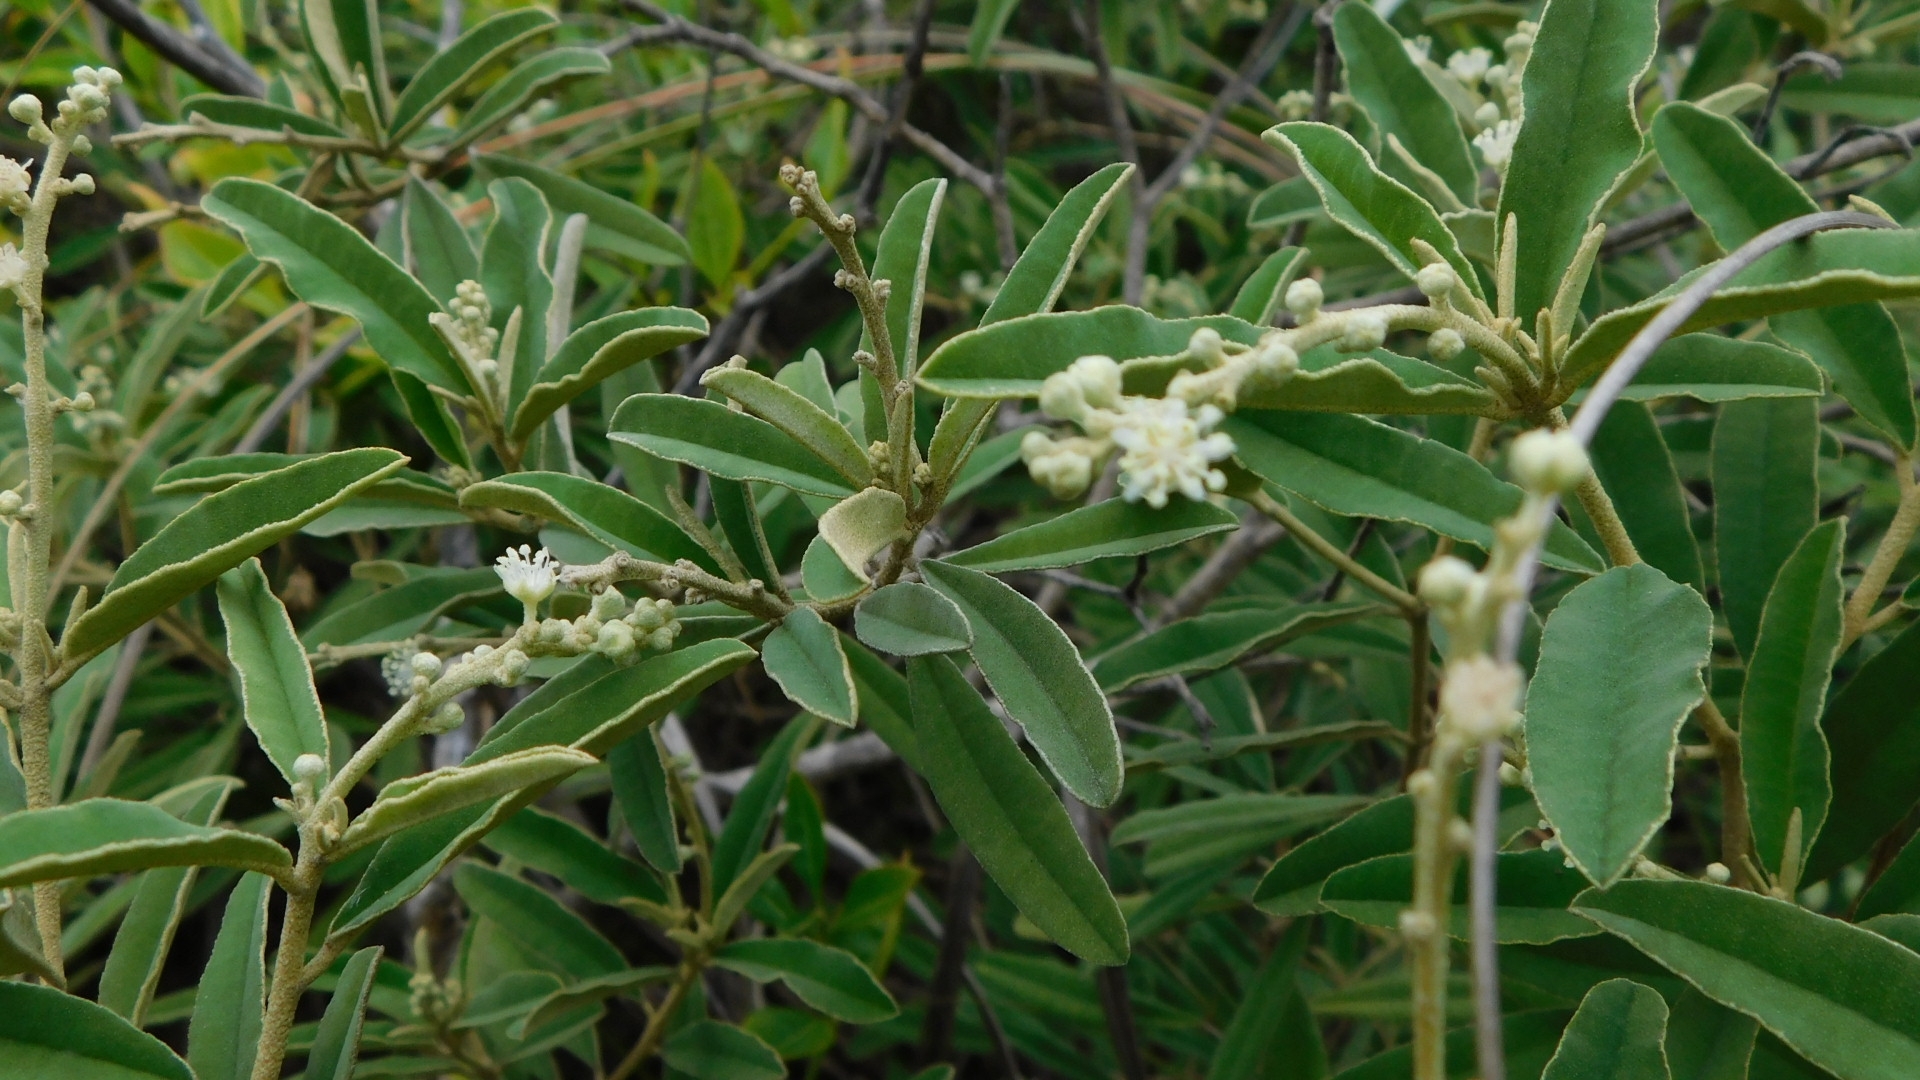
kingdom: Plantae
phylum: Tracheophyta
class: Magnoliopsida
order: Malpighiales
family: Euphorbiaceae
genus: Croton
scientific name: Croton linearis
